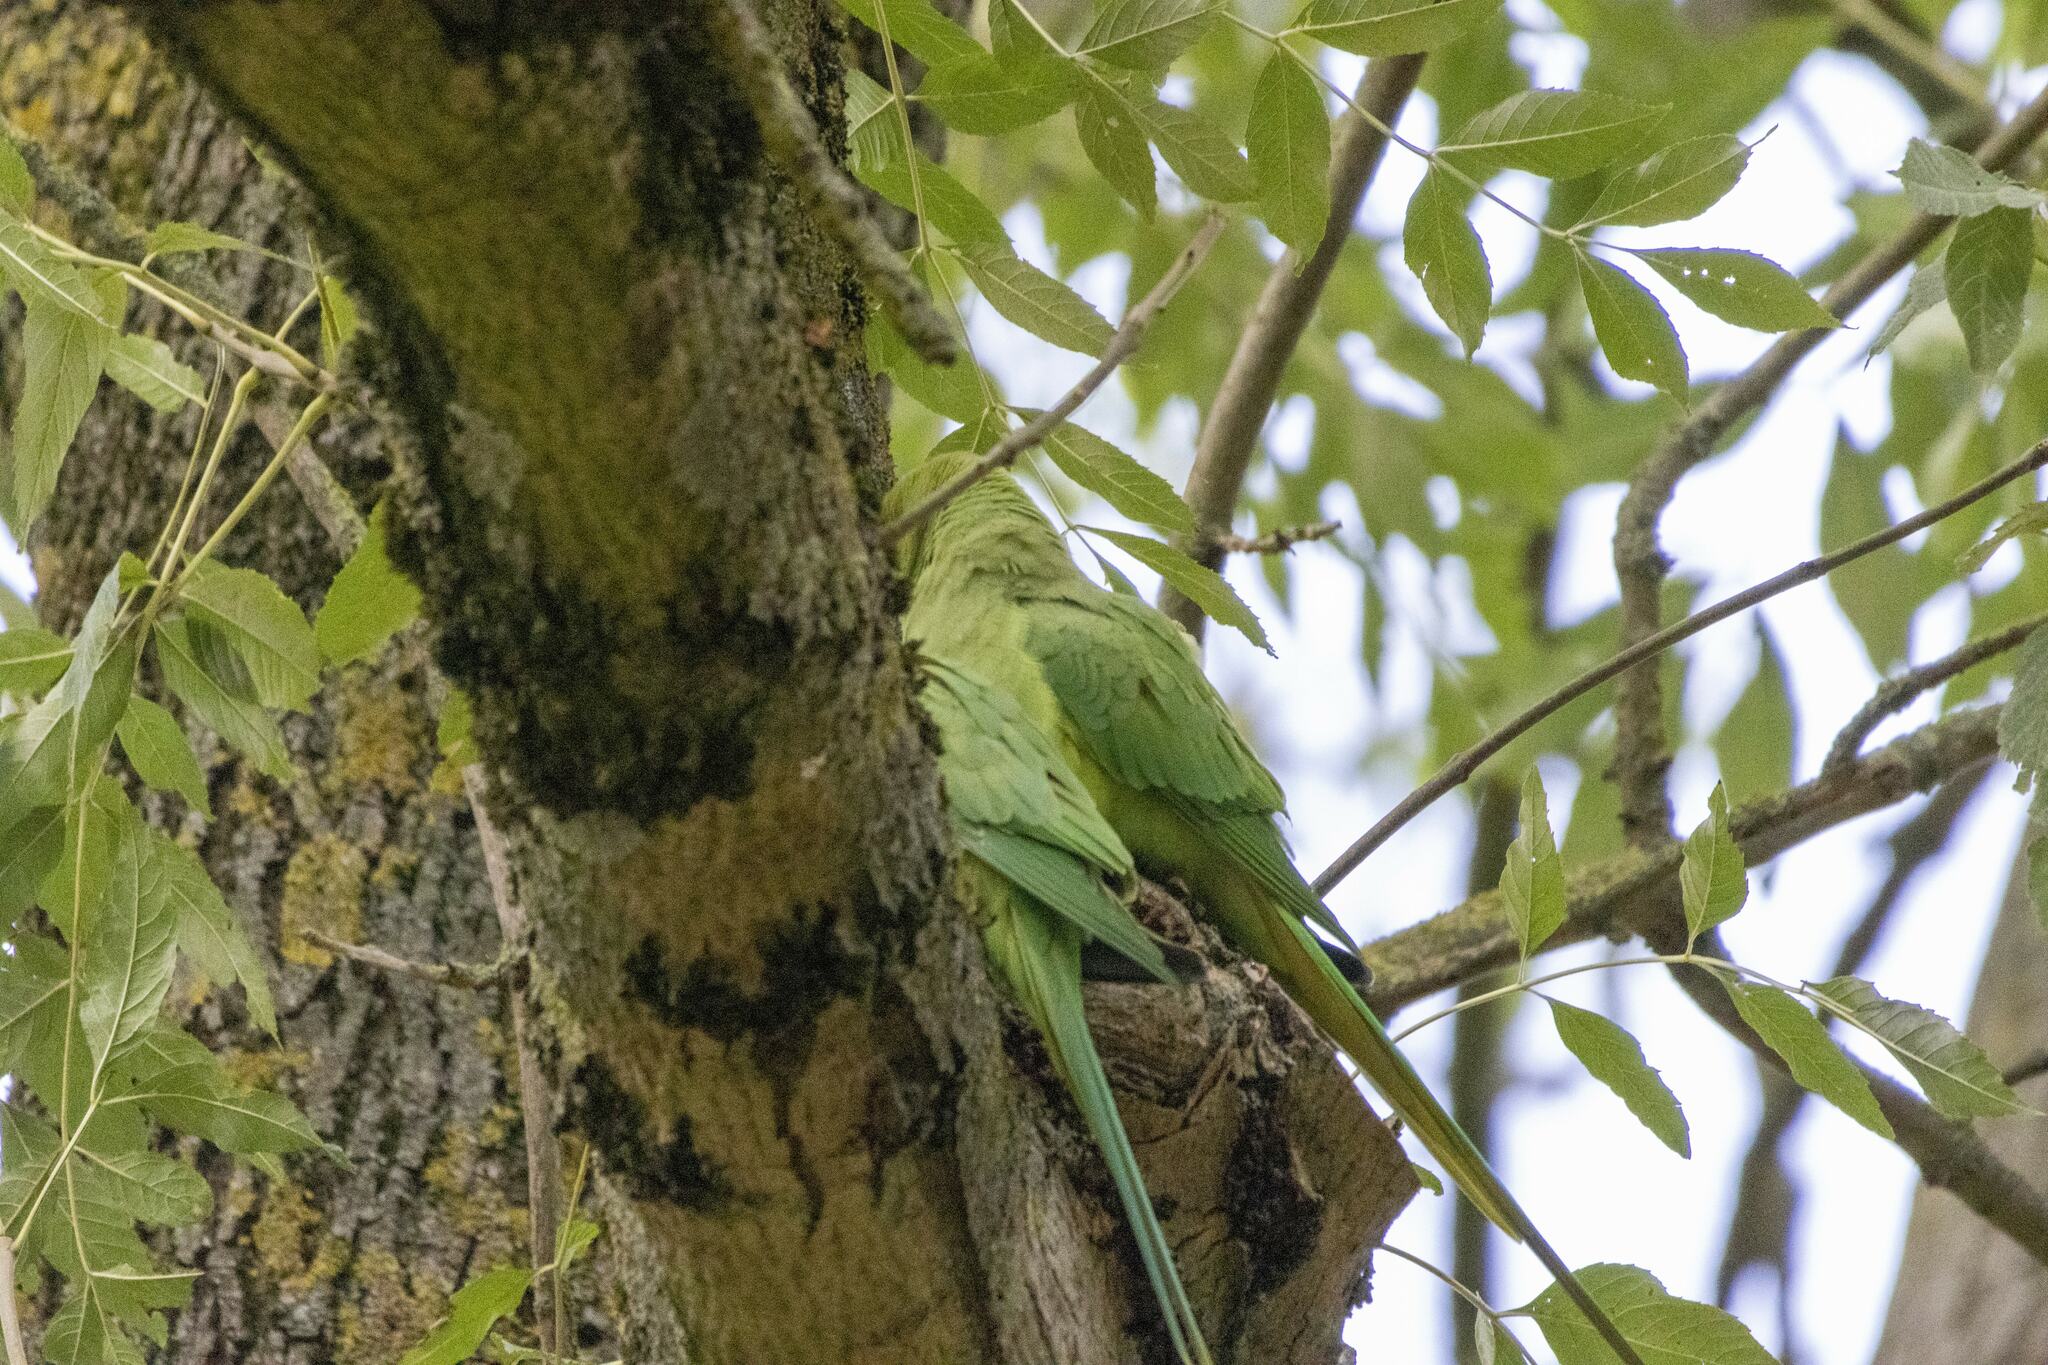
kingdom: Animalia
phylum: Chordata
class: Aves
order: Psittaciformes
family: Psittacidae
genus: Psittacula
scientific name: Psittacula krameri
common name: Rose-ringed parakeet
